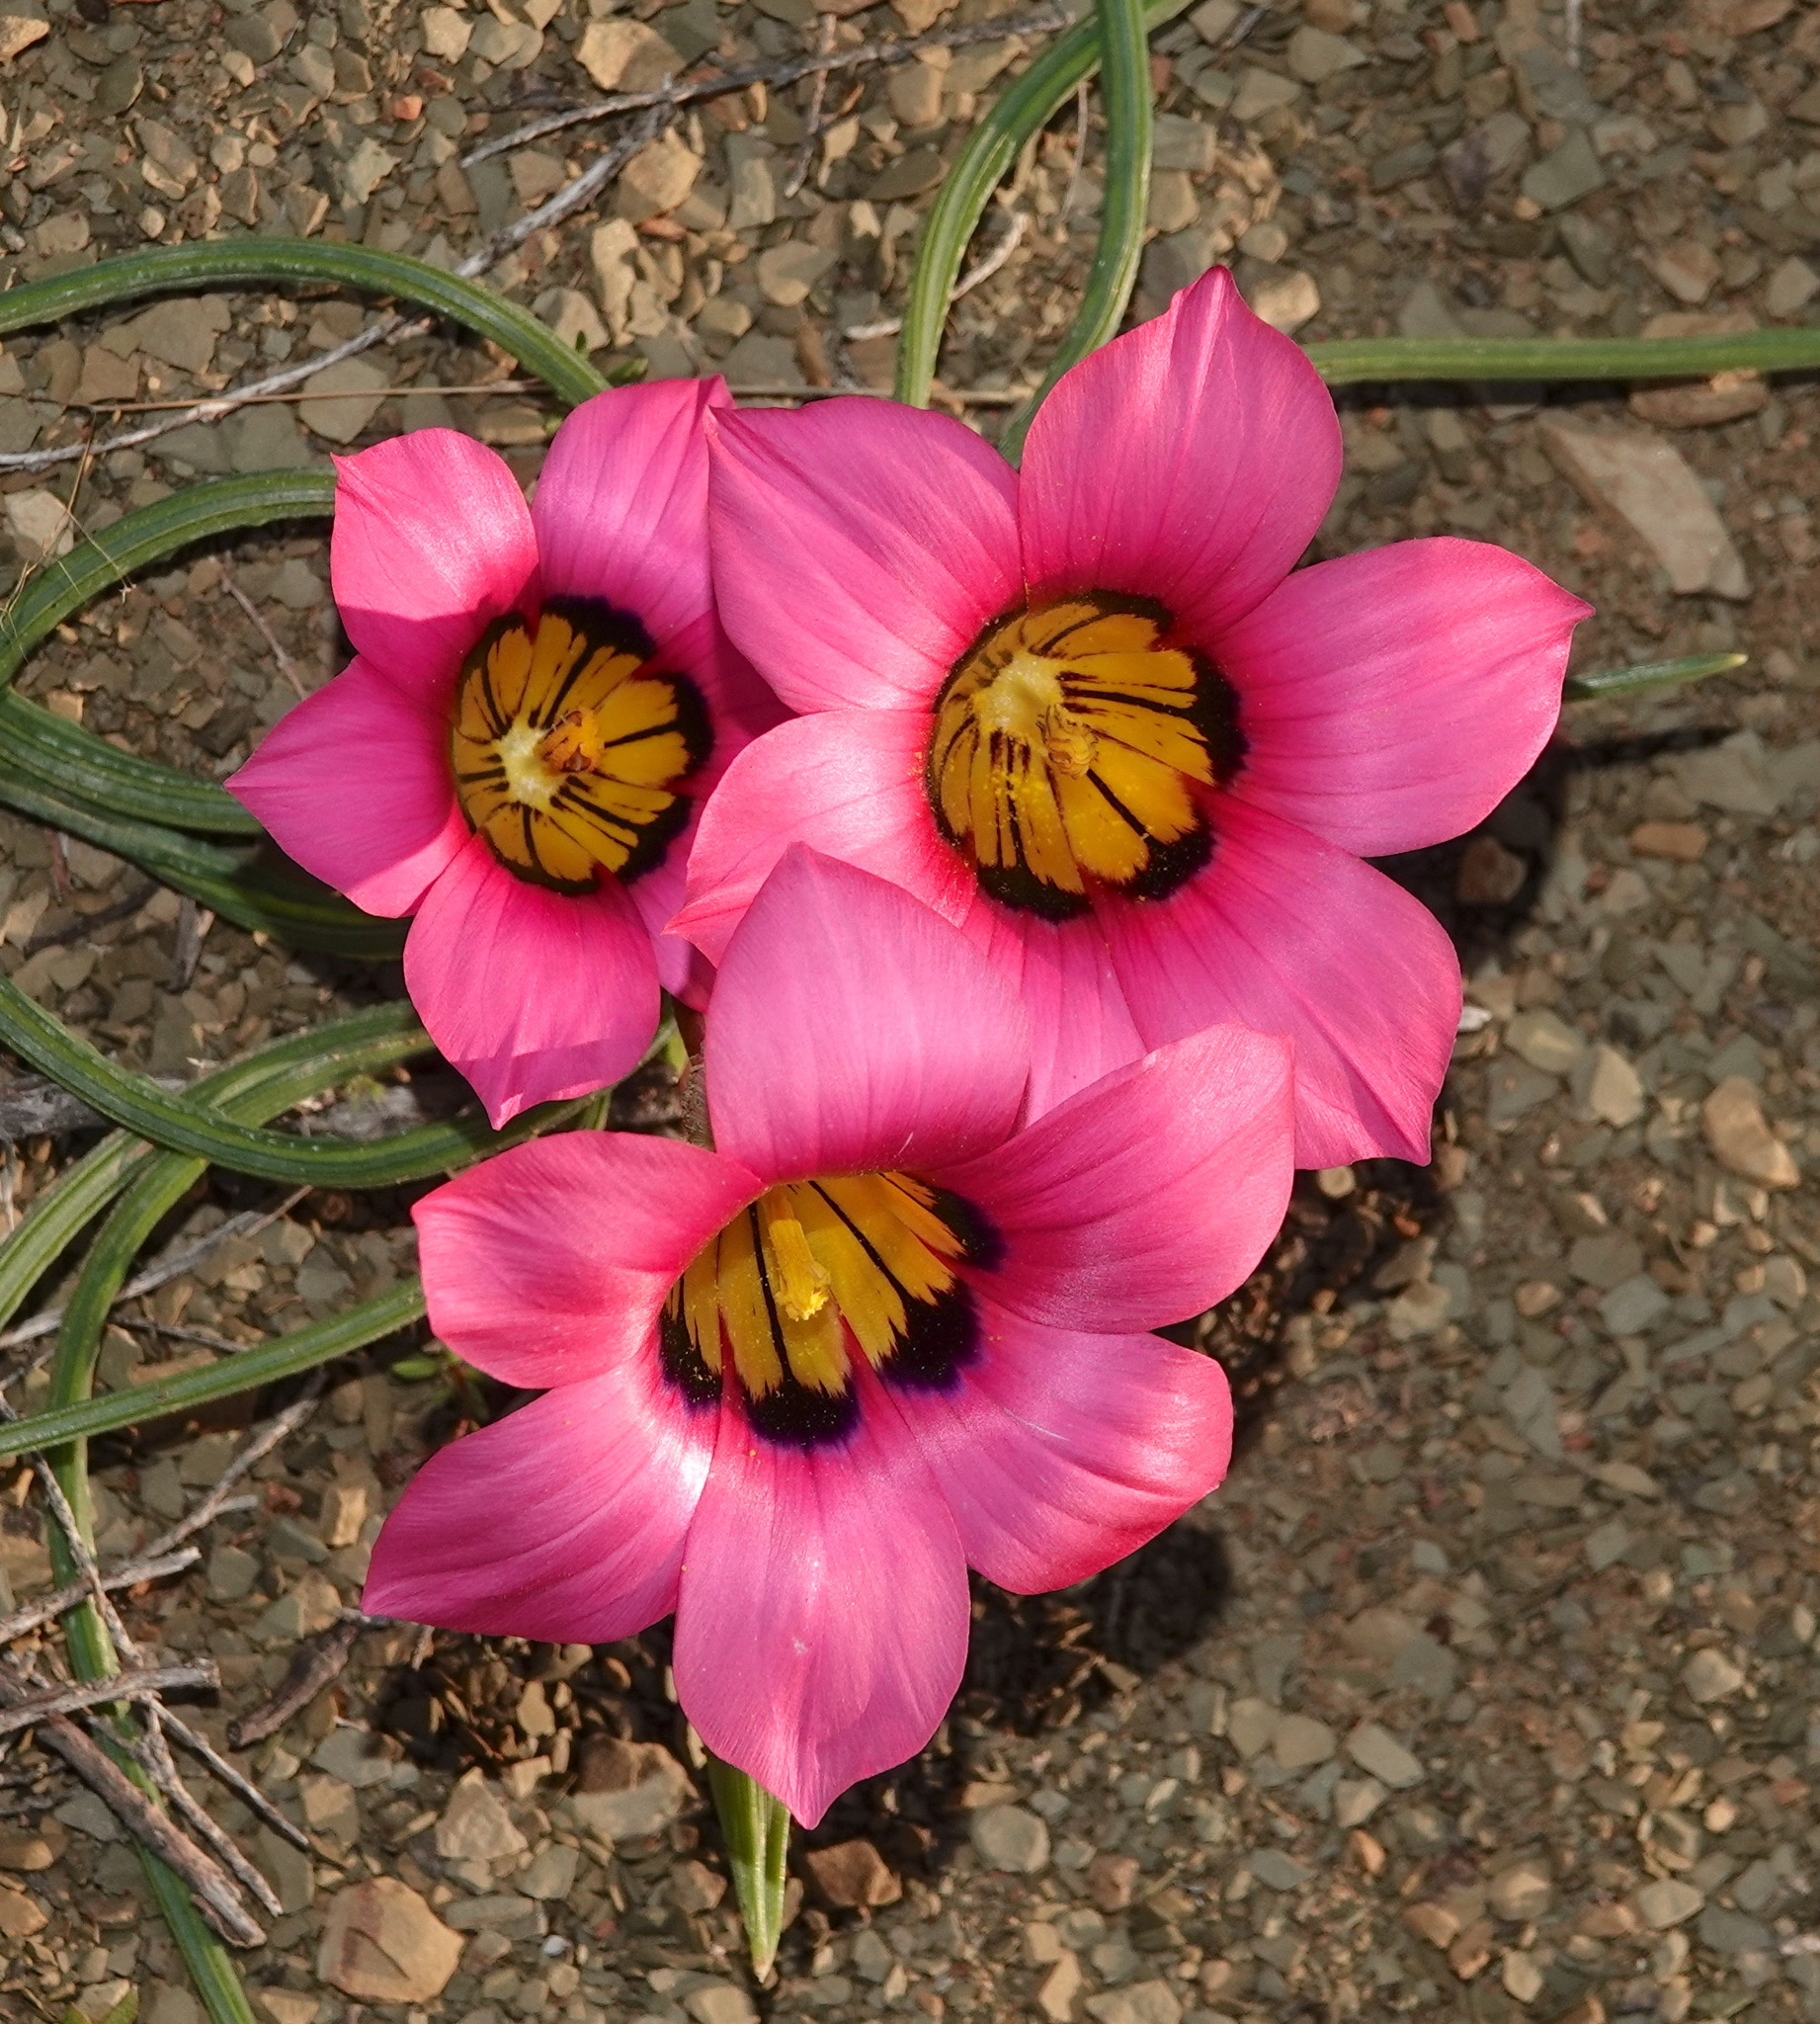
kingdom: Plantae
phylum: Tracheophyta
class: Liliopsida
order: Asparagales
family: Iridaceae
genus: Romulea
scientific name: Romulea subfistulosa
